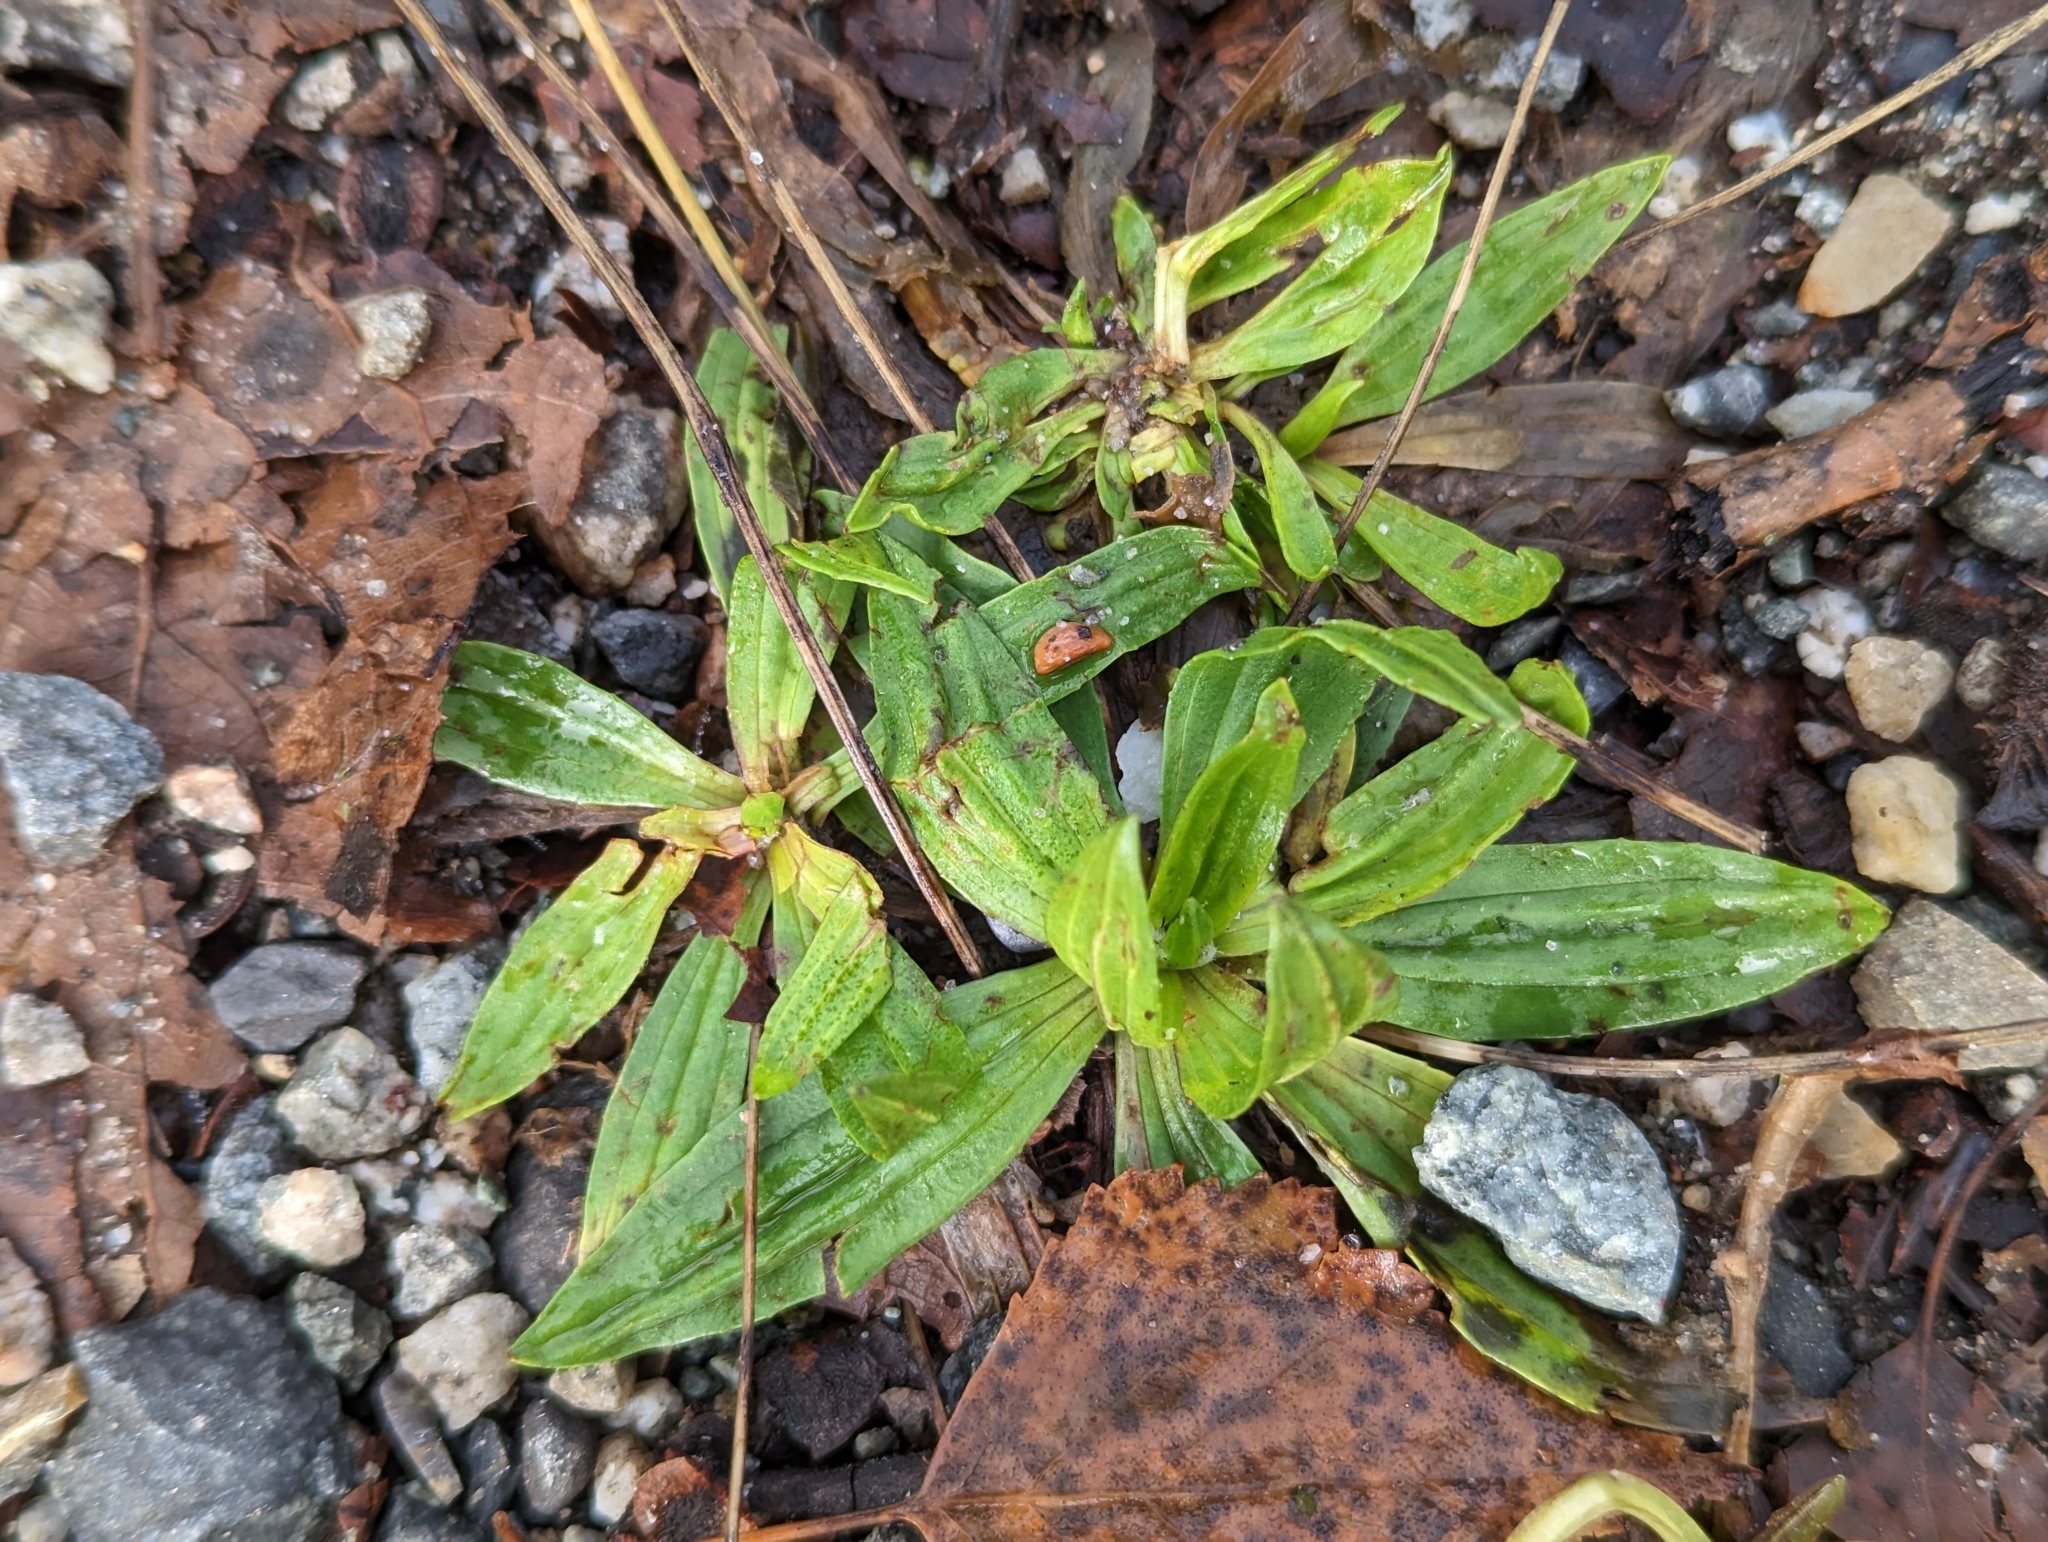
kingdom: Plantae
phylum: Tracheophyta
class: Magnoliopsida
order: Lamiales
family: Plantaginaceae
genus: Plantago
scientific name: Plantago lanceolata
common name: Ribwort plantain
